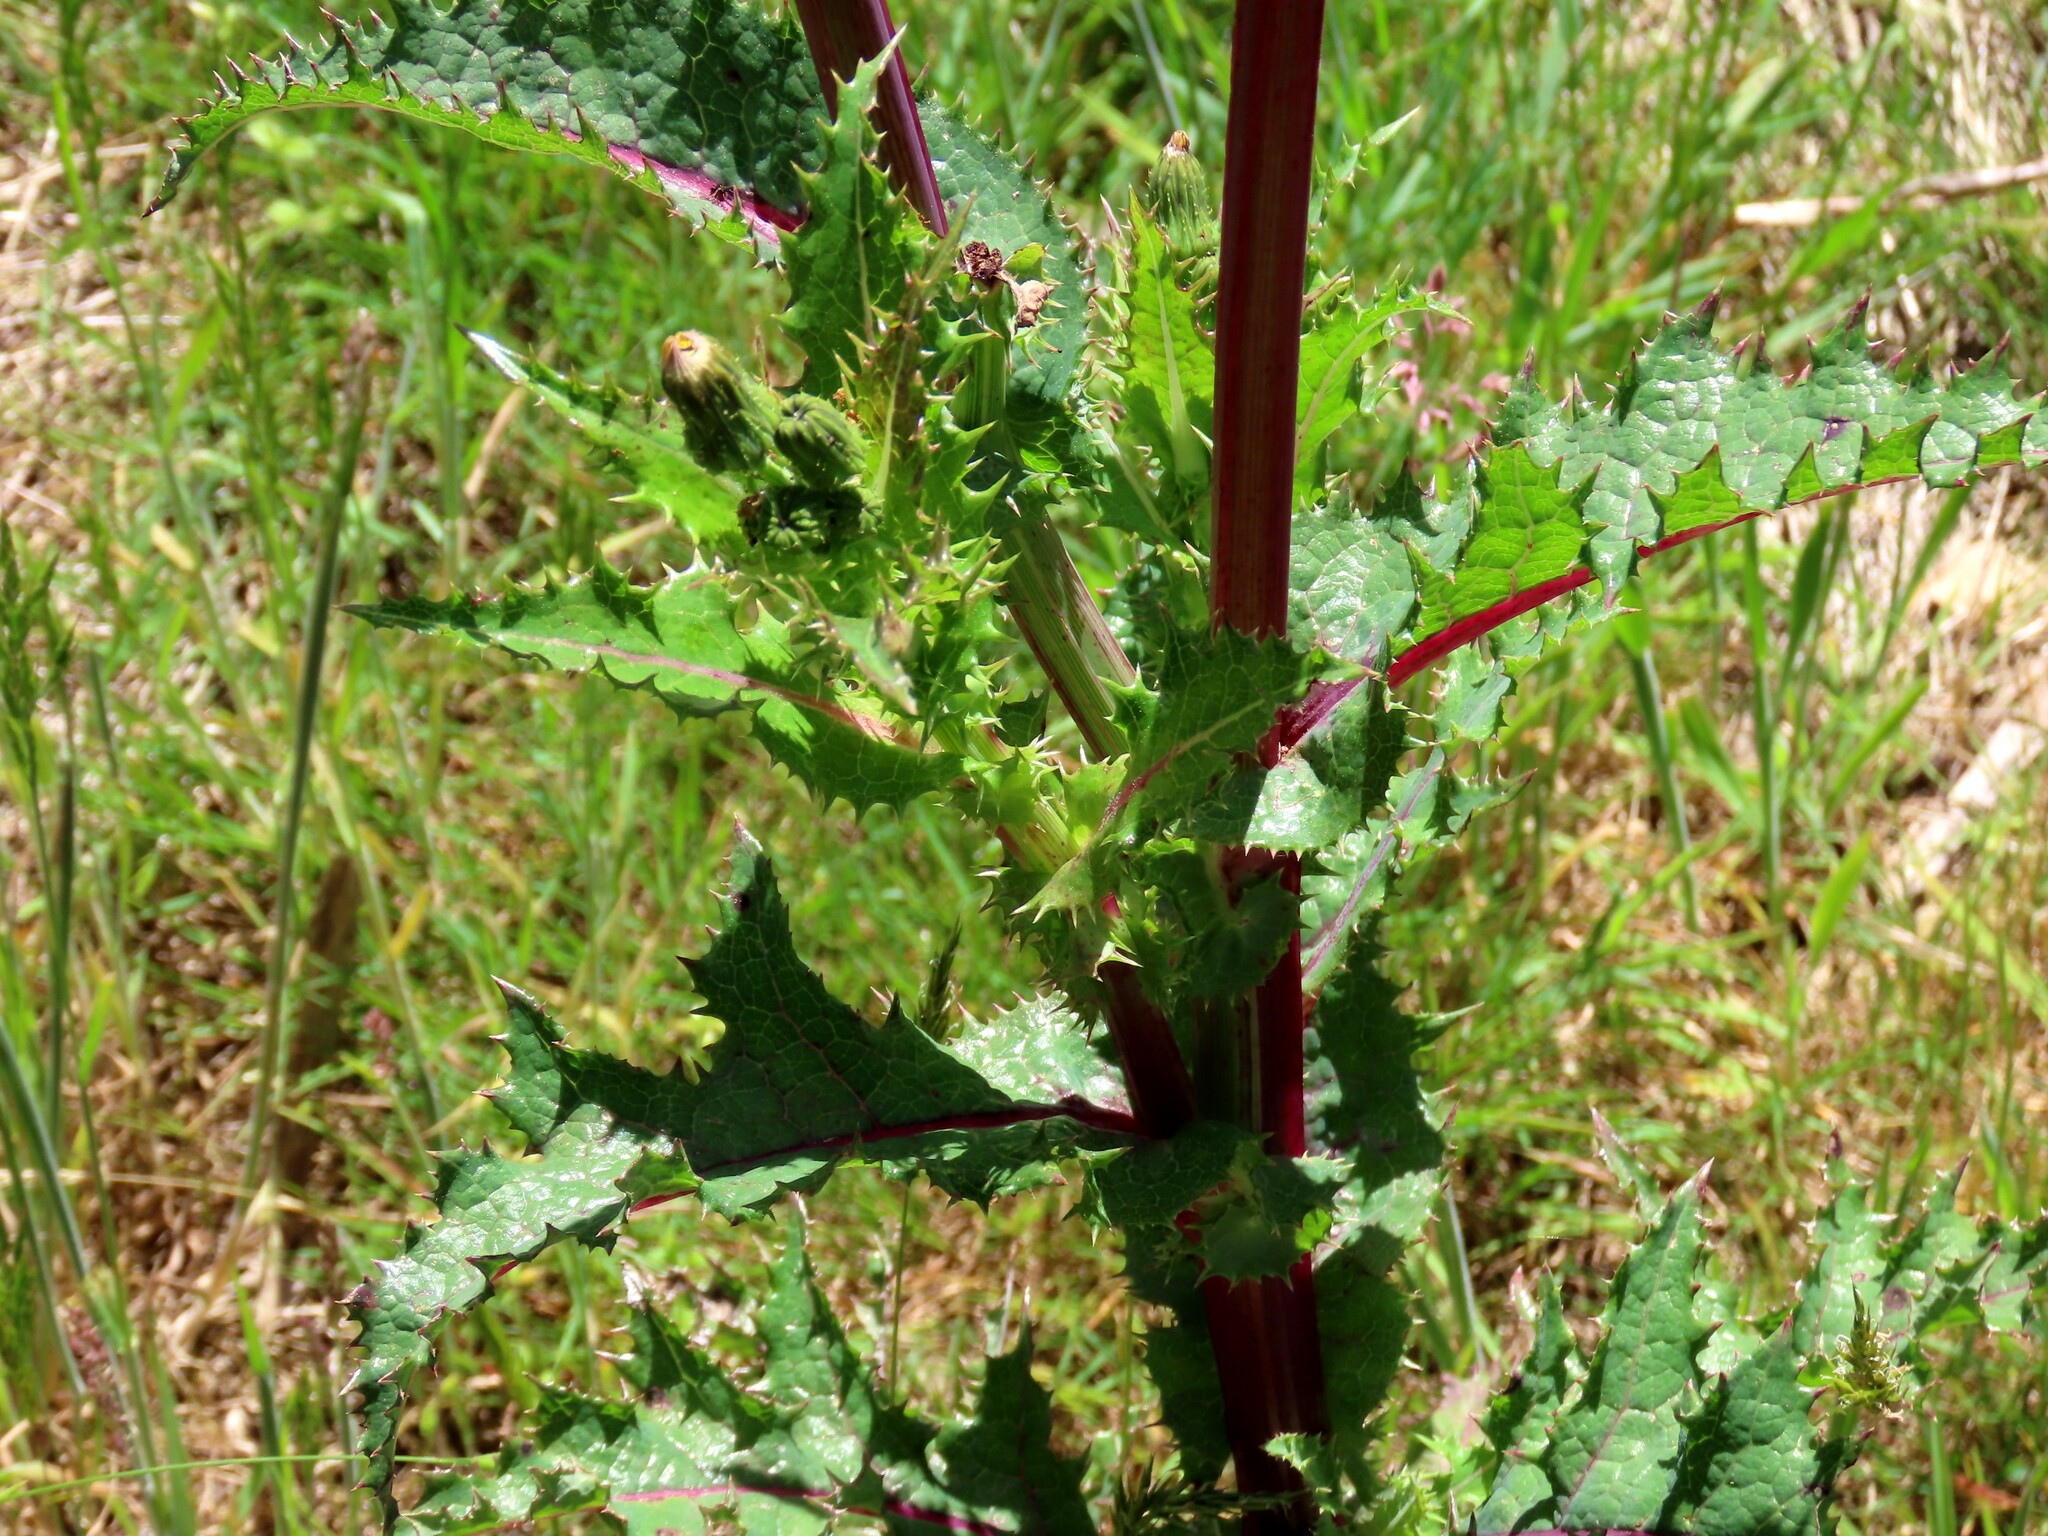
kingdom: Plantae
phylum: Tracheophyta
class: Magnoliopsida
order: Asterales
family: Asteraceae
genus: Sonchus
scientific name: Sonchus asper
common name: Prickly sow-thistle
